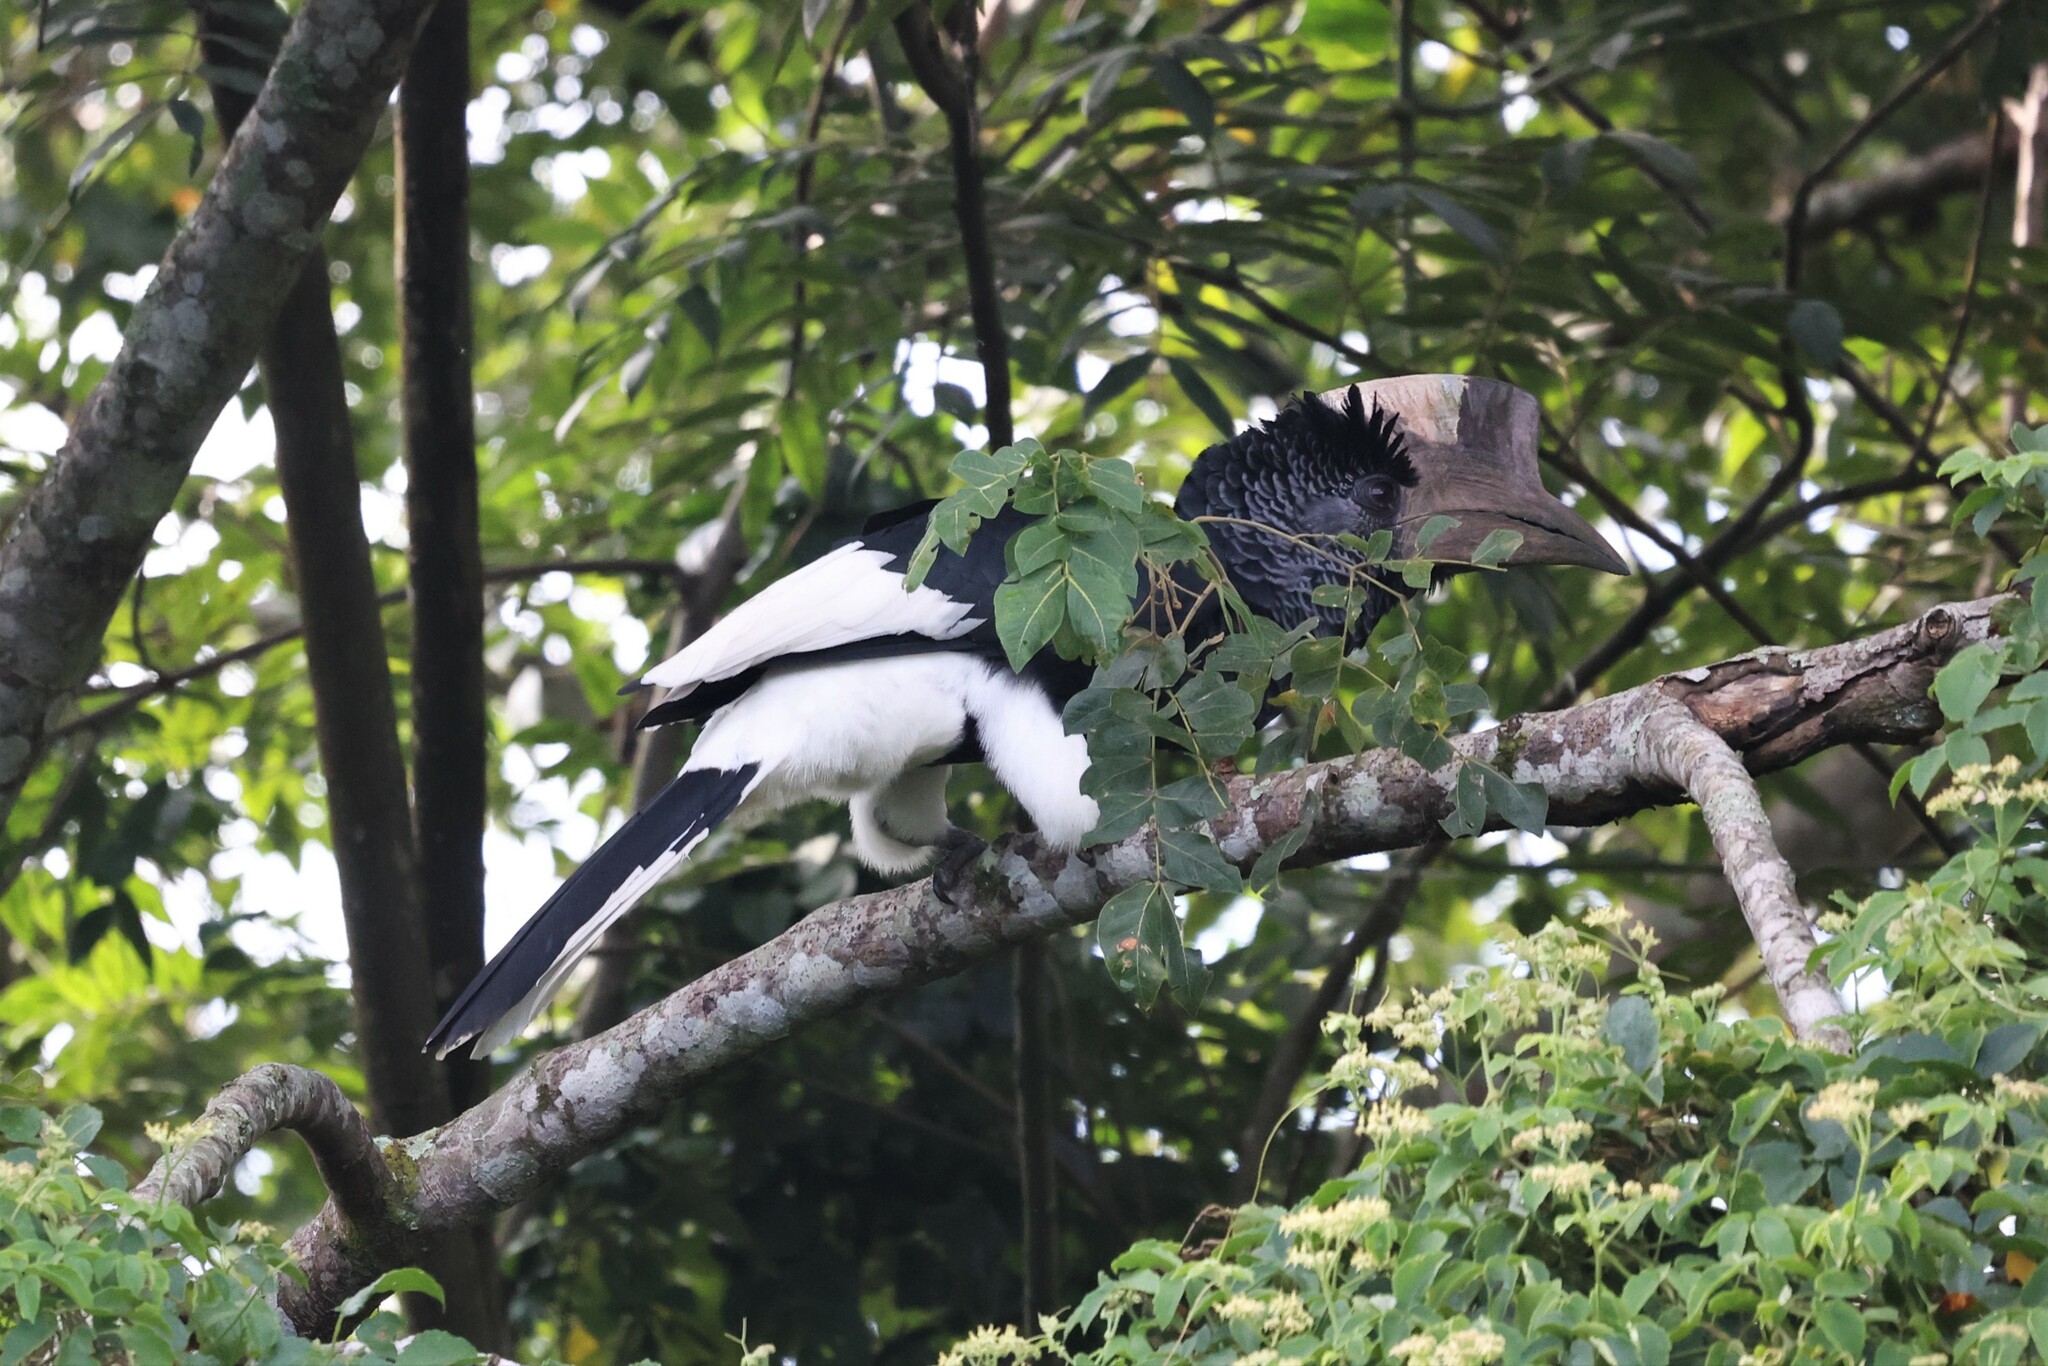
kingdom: Animalia
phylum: Chordata
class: Aves
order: Bucerotiformes
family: Bucerotidae
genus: Bycanistes
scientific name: Bycanistes subcylindricus
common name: Black-and-white-casqued hornbill
